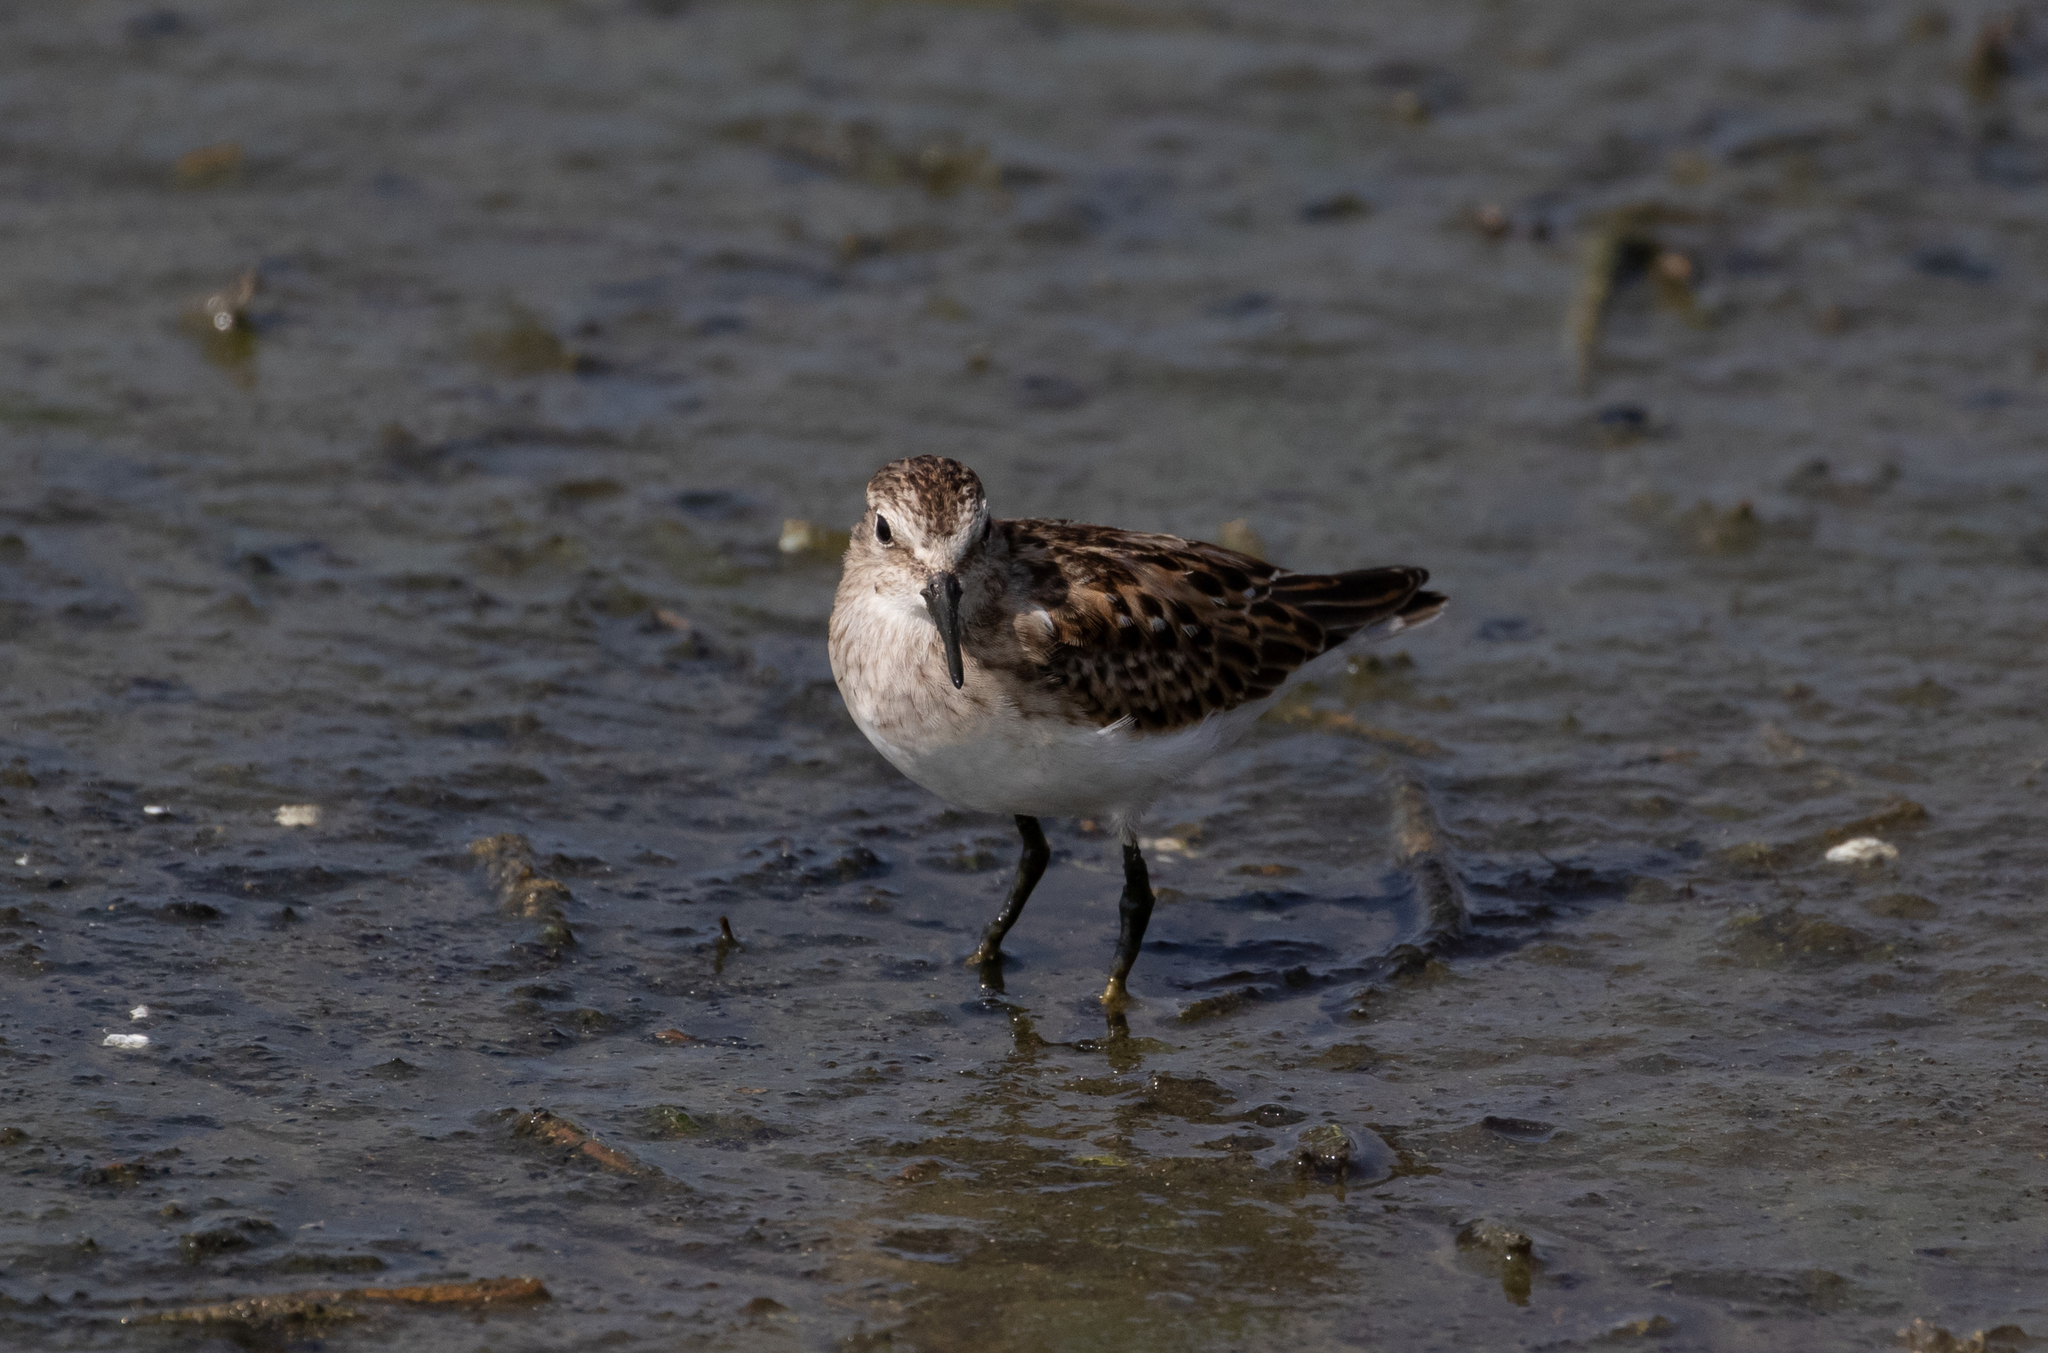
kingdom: Animalia
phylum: Chordata
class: Aves
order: Charadriiformes
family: Scolopacidae
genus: Calidris
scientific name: Calidris minutilla
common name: Least sandpiper
